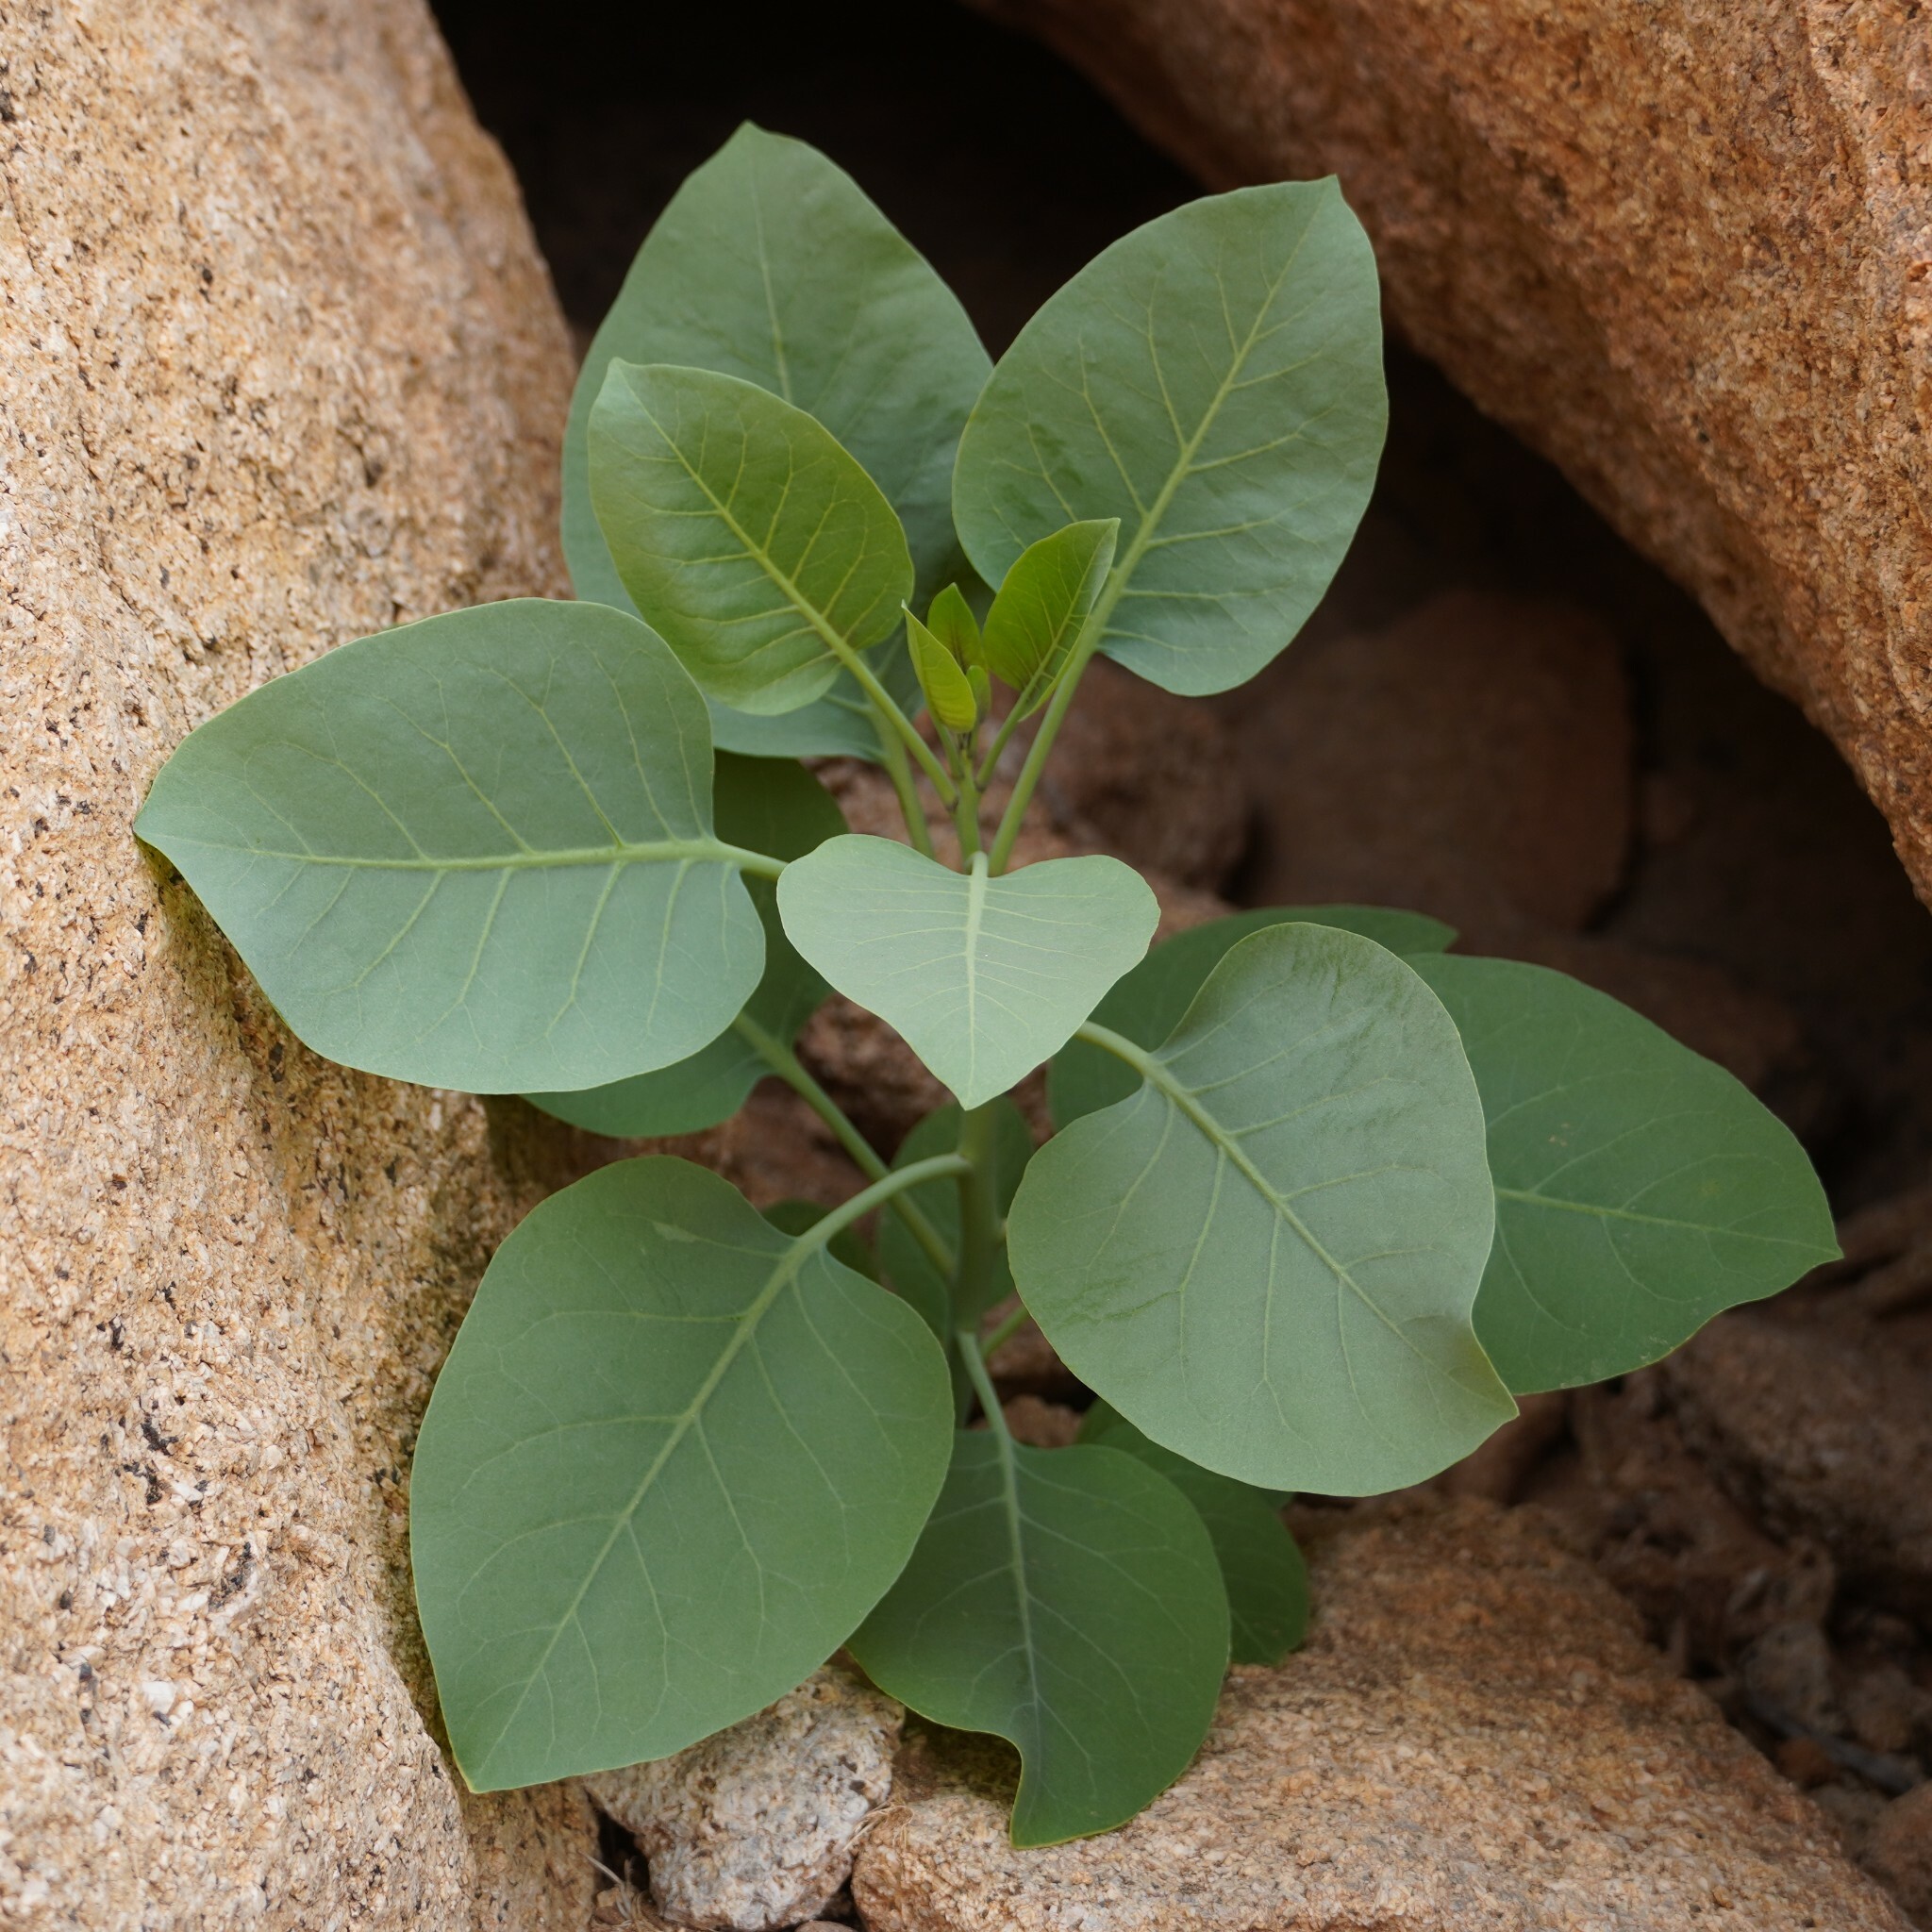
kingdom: Plantae
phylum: Tracheophyta
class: Magnoliopsida
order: Solanales
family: Solanaceae
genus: Nicotiana
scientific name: Nicotiana glauca
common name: Tree tobacco
